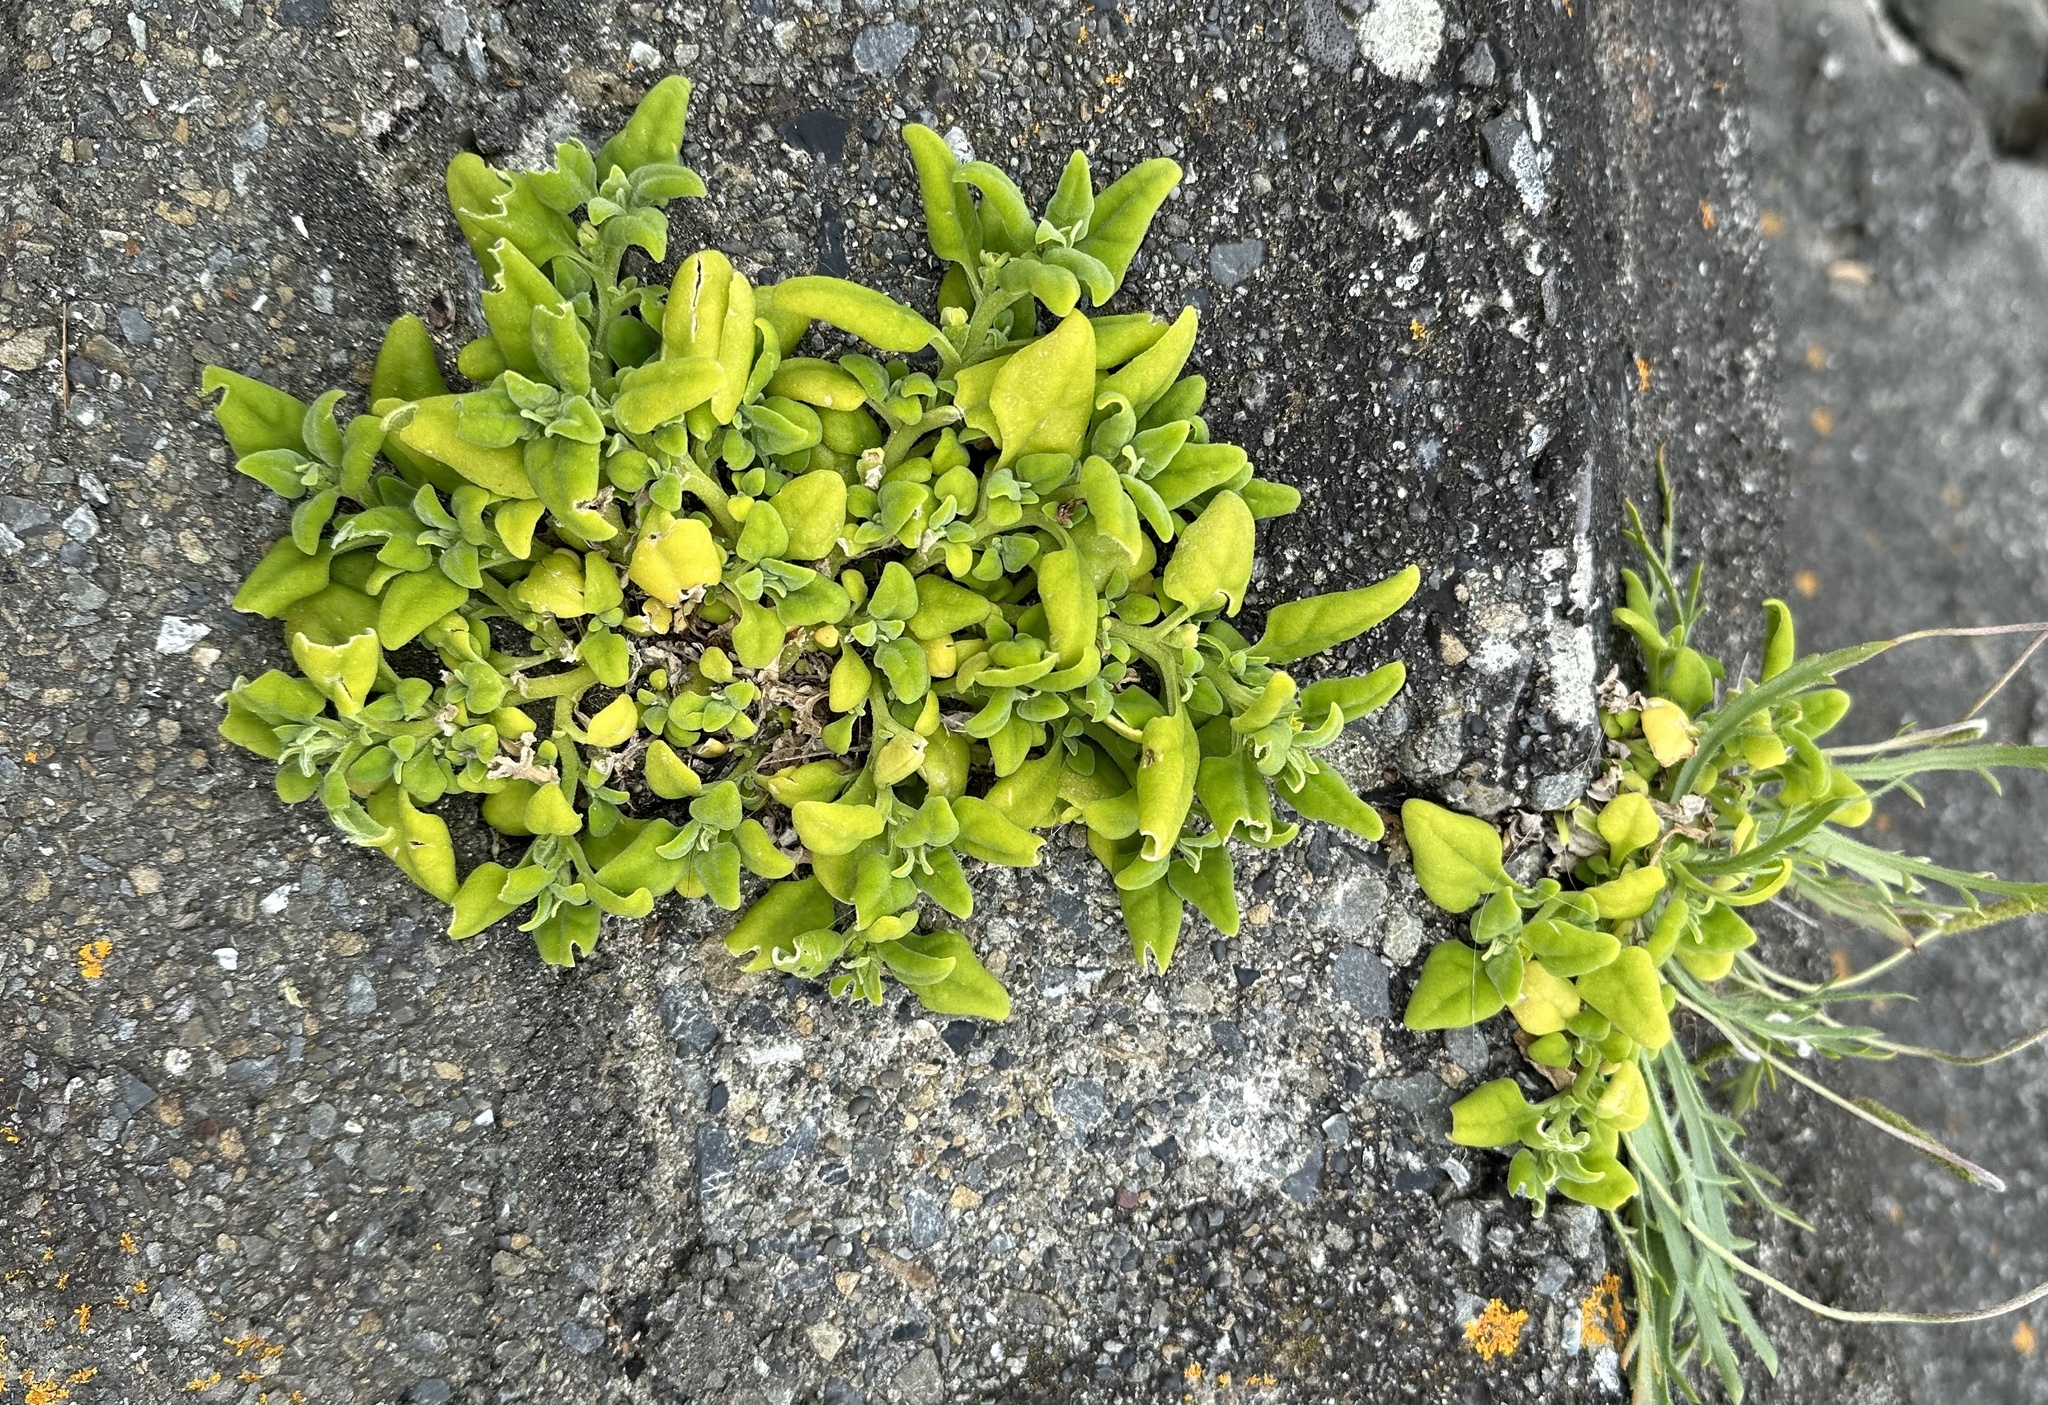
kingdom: Plantae
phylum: Tracheophyta
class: Magnoliopsida
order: Caryophyllales
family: Aizoaceae
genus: Tetragonia
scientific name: Tetragonia implexicoma
